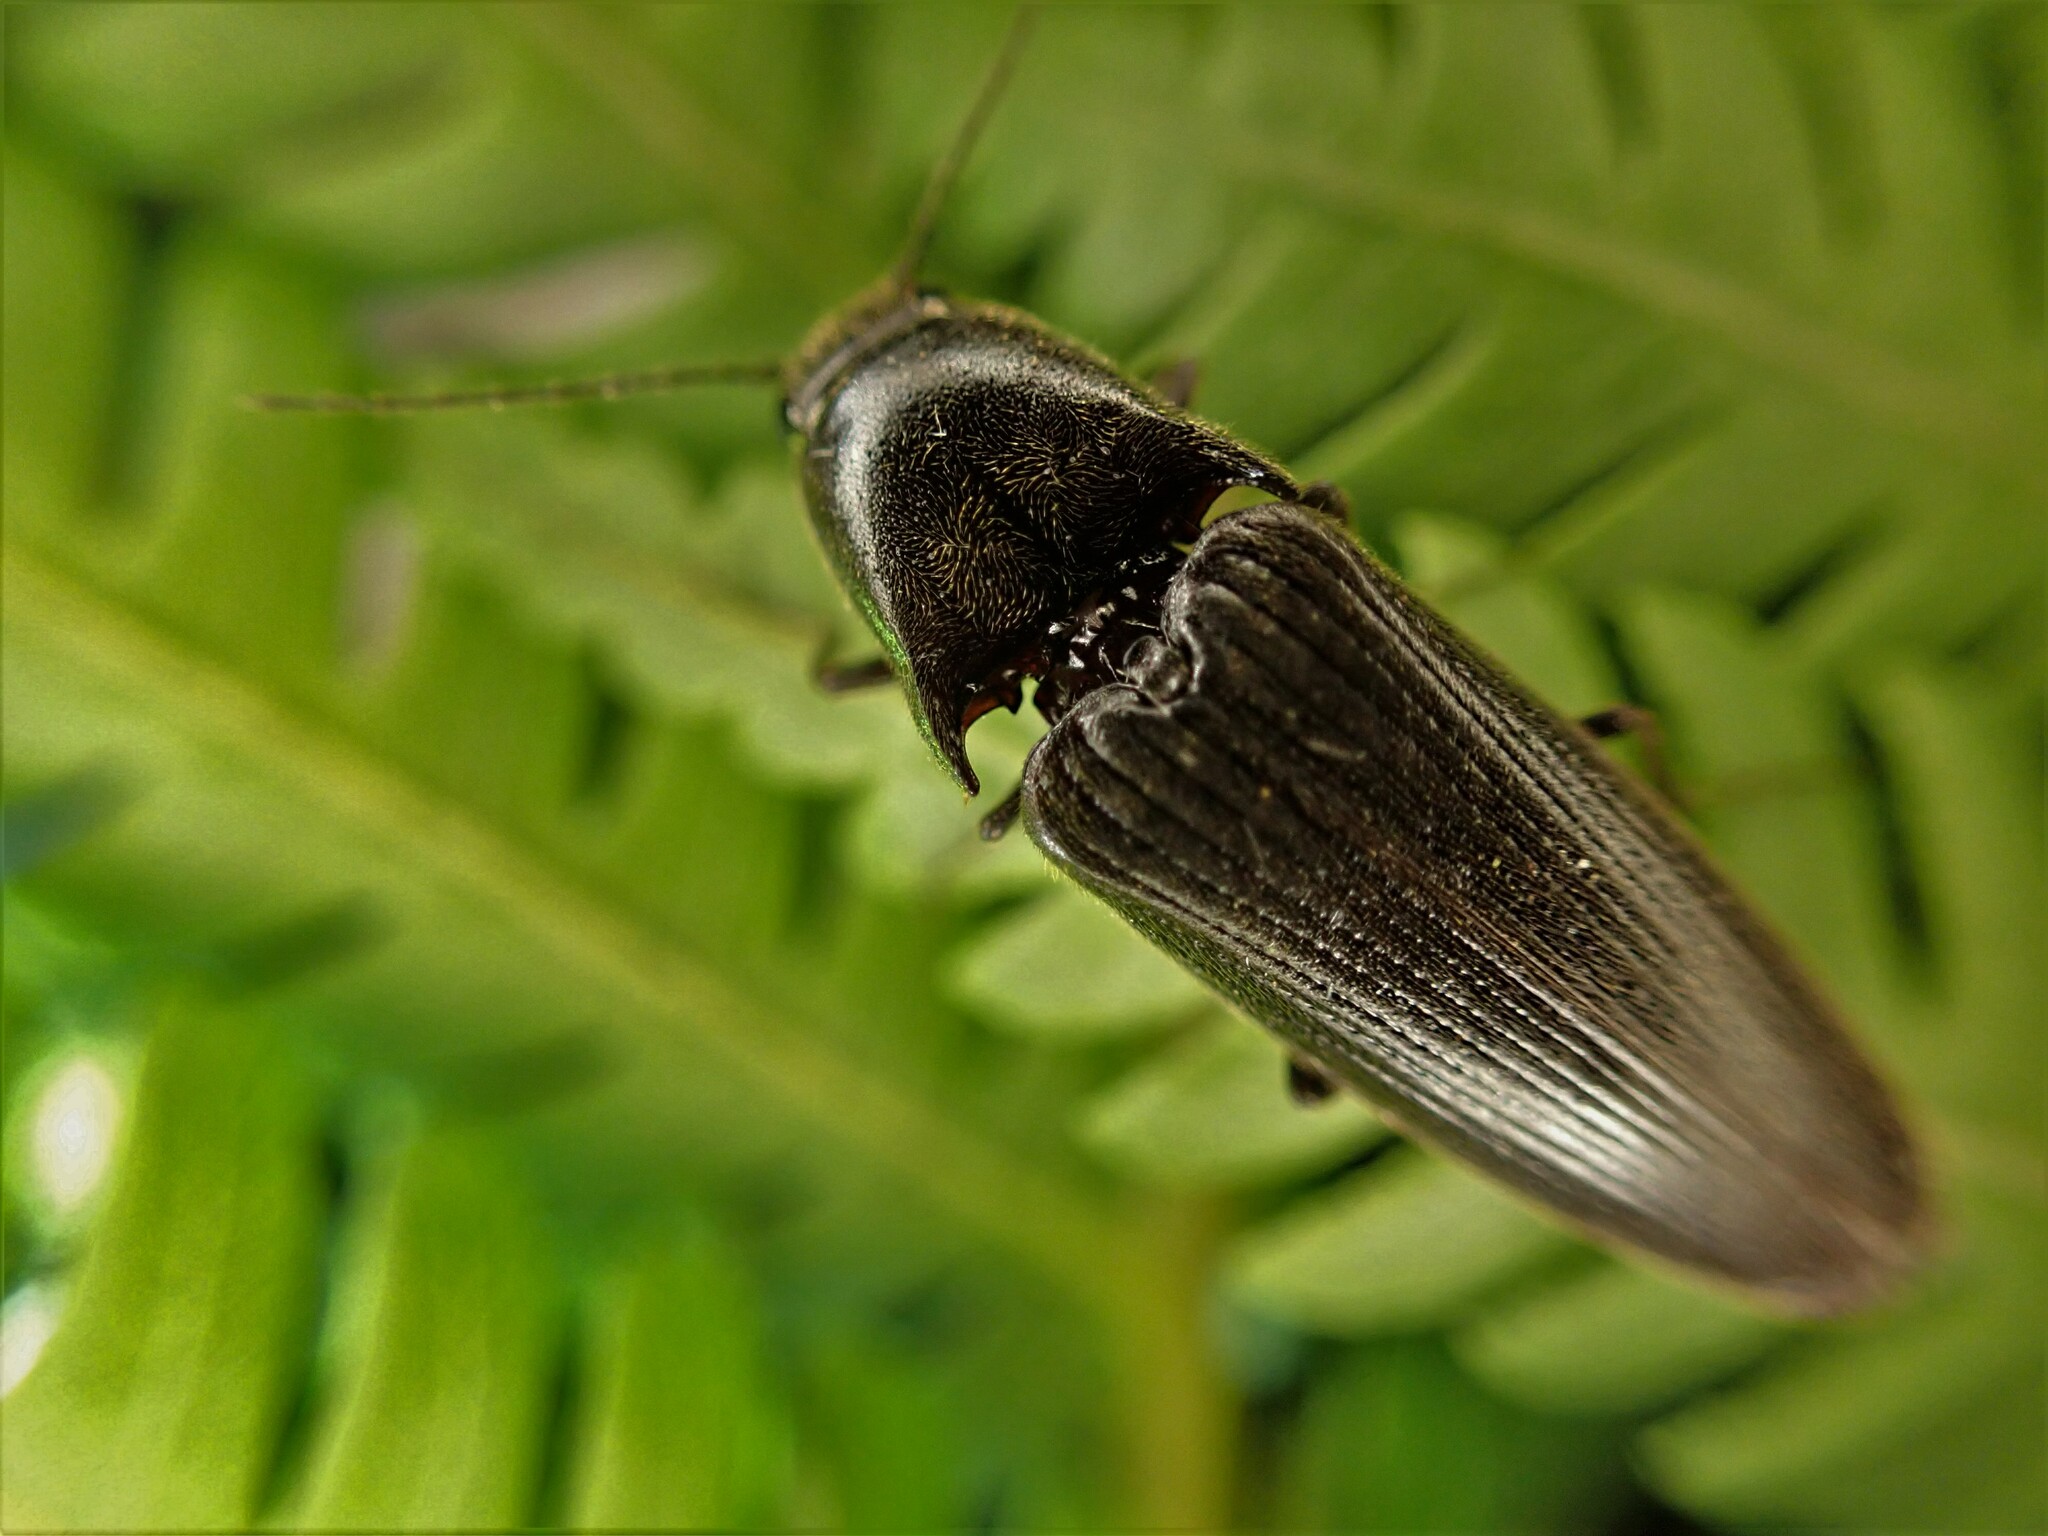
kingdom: Animalia
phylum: Arthropoda
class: Insecta
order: Coleoptera
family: Elateridae
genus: Ochosternus
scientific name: Ochosternus zealandicus
